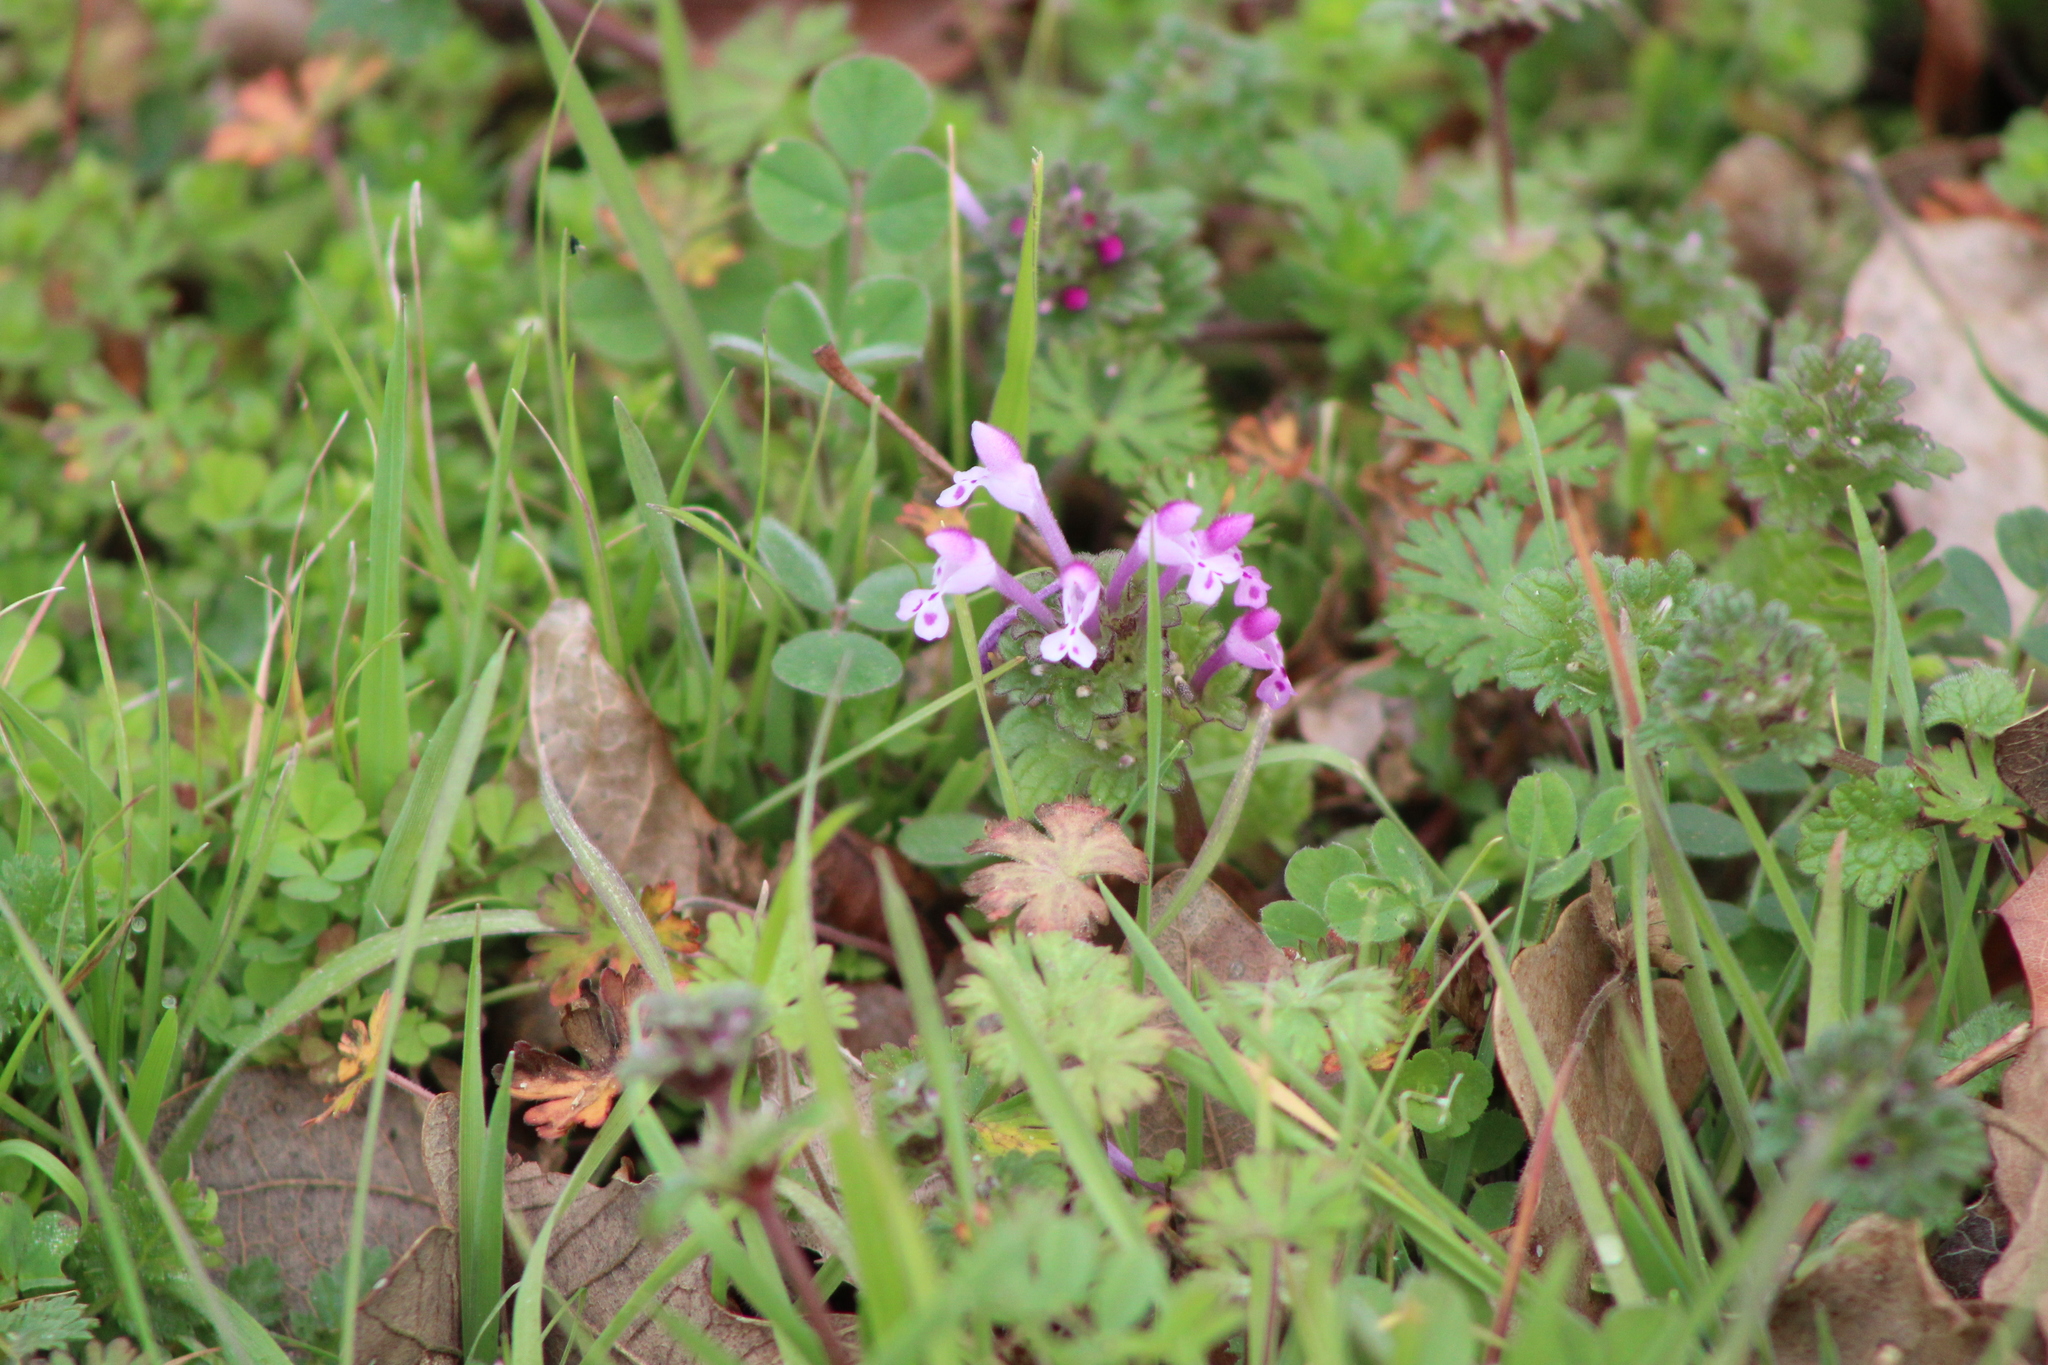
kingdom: Plantae
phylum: Tracheophyta
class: Magnoliopsida
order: Lamiales
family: Lamiaceae
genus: Lamium
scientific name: Lamium amplexicaule
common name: Henbit dead-nettle
